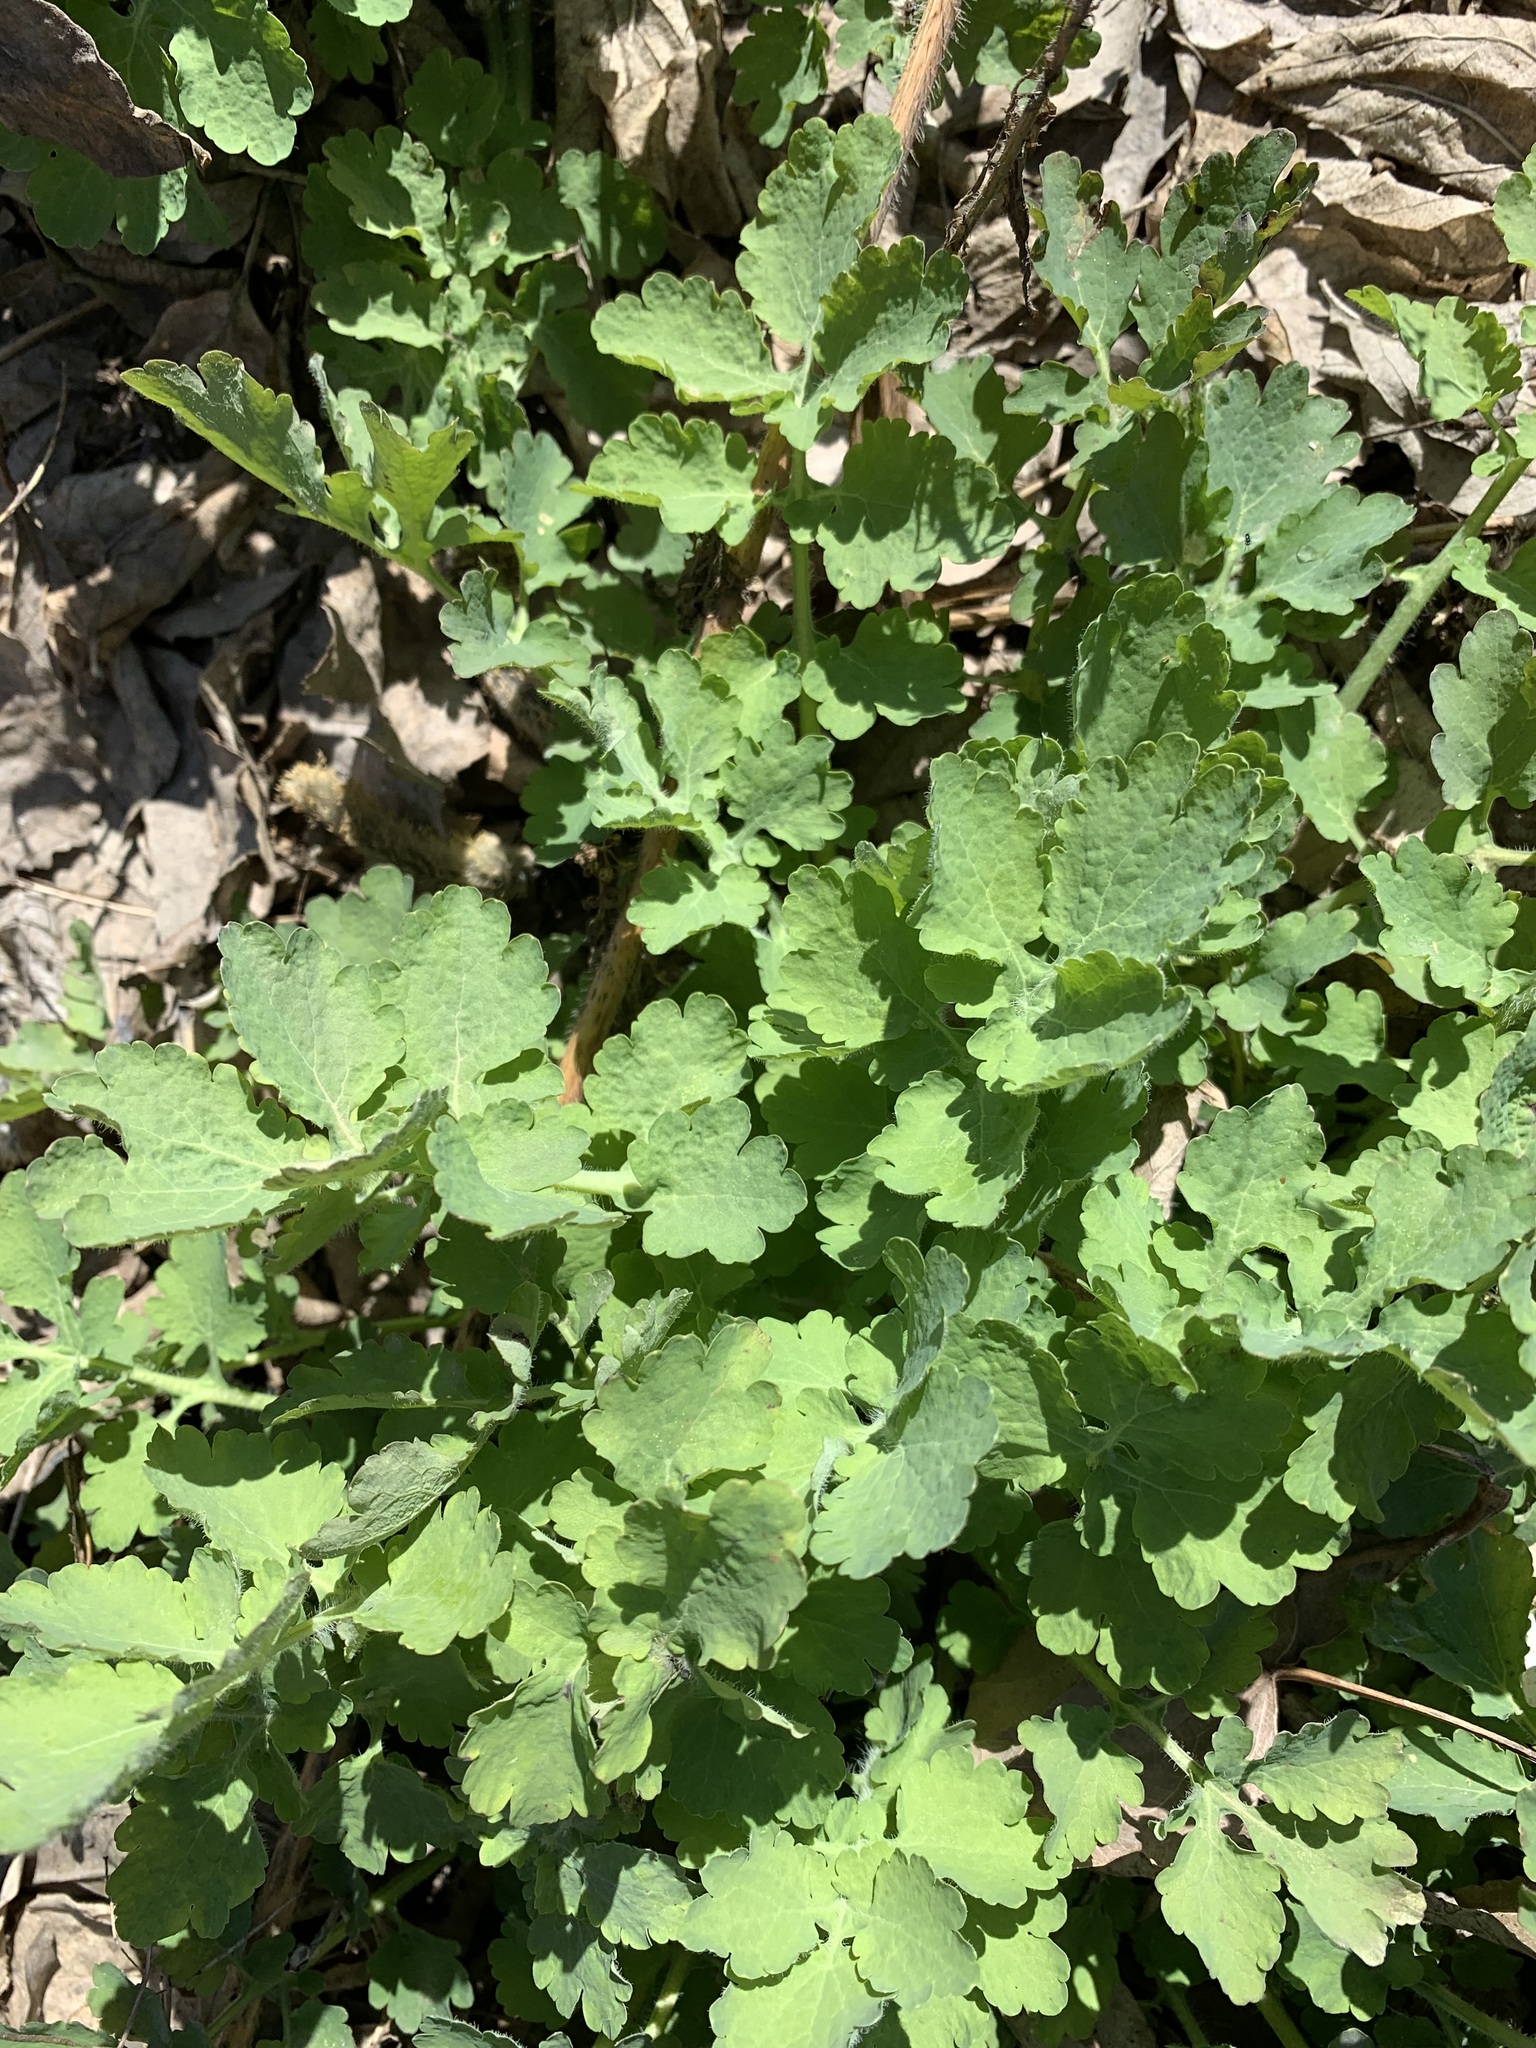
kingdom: Plantae
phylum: Tracheophyta
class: Magnoliopsida
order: Ranunculales
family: Papaveraceae
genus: Chelidonium
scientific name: Chelidonium majus
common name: Greater celandine
